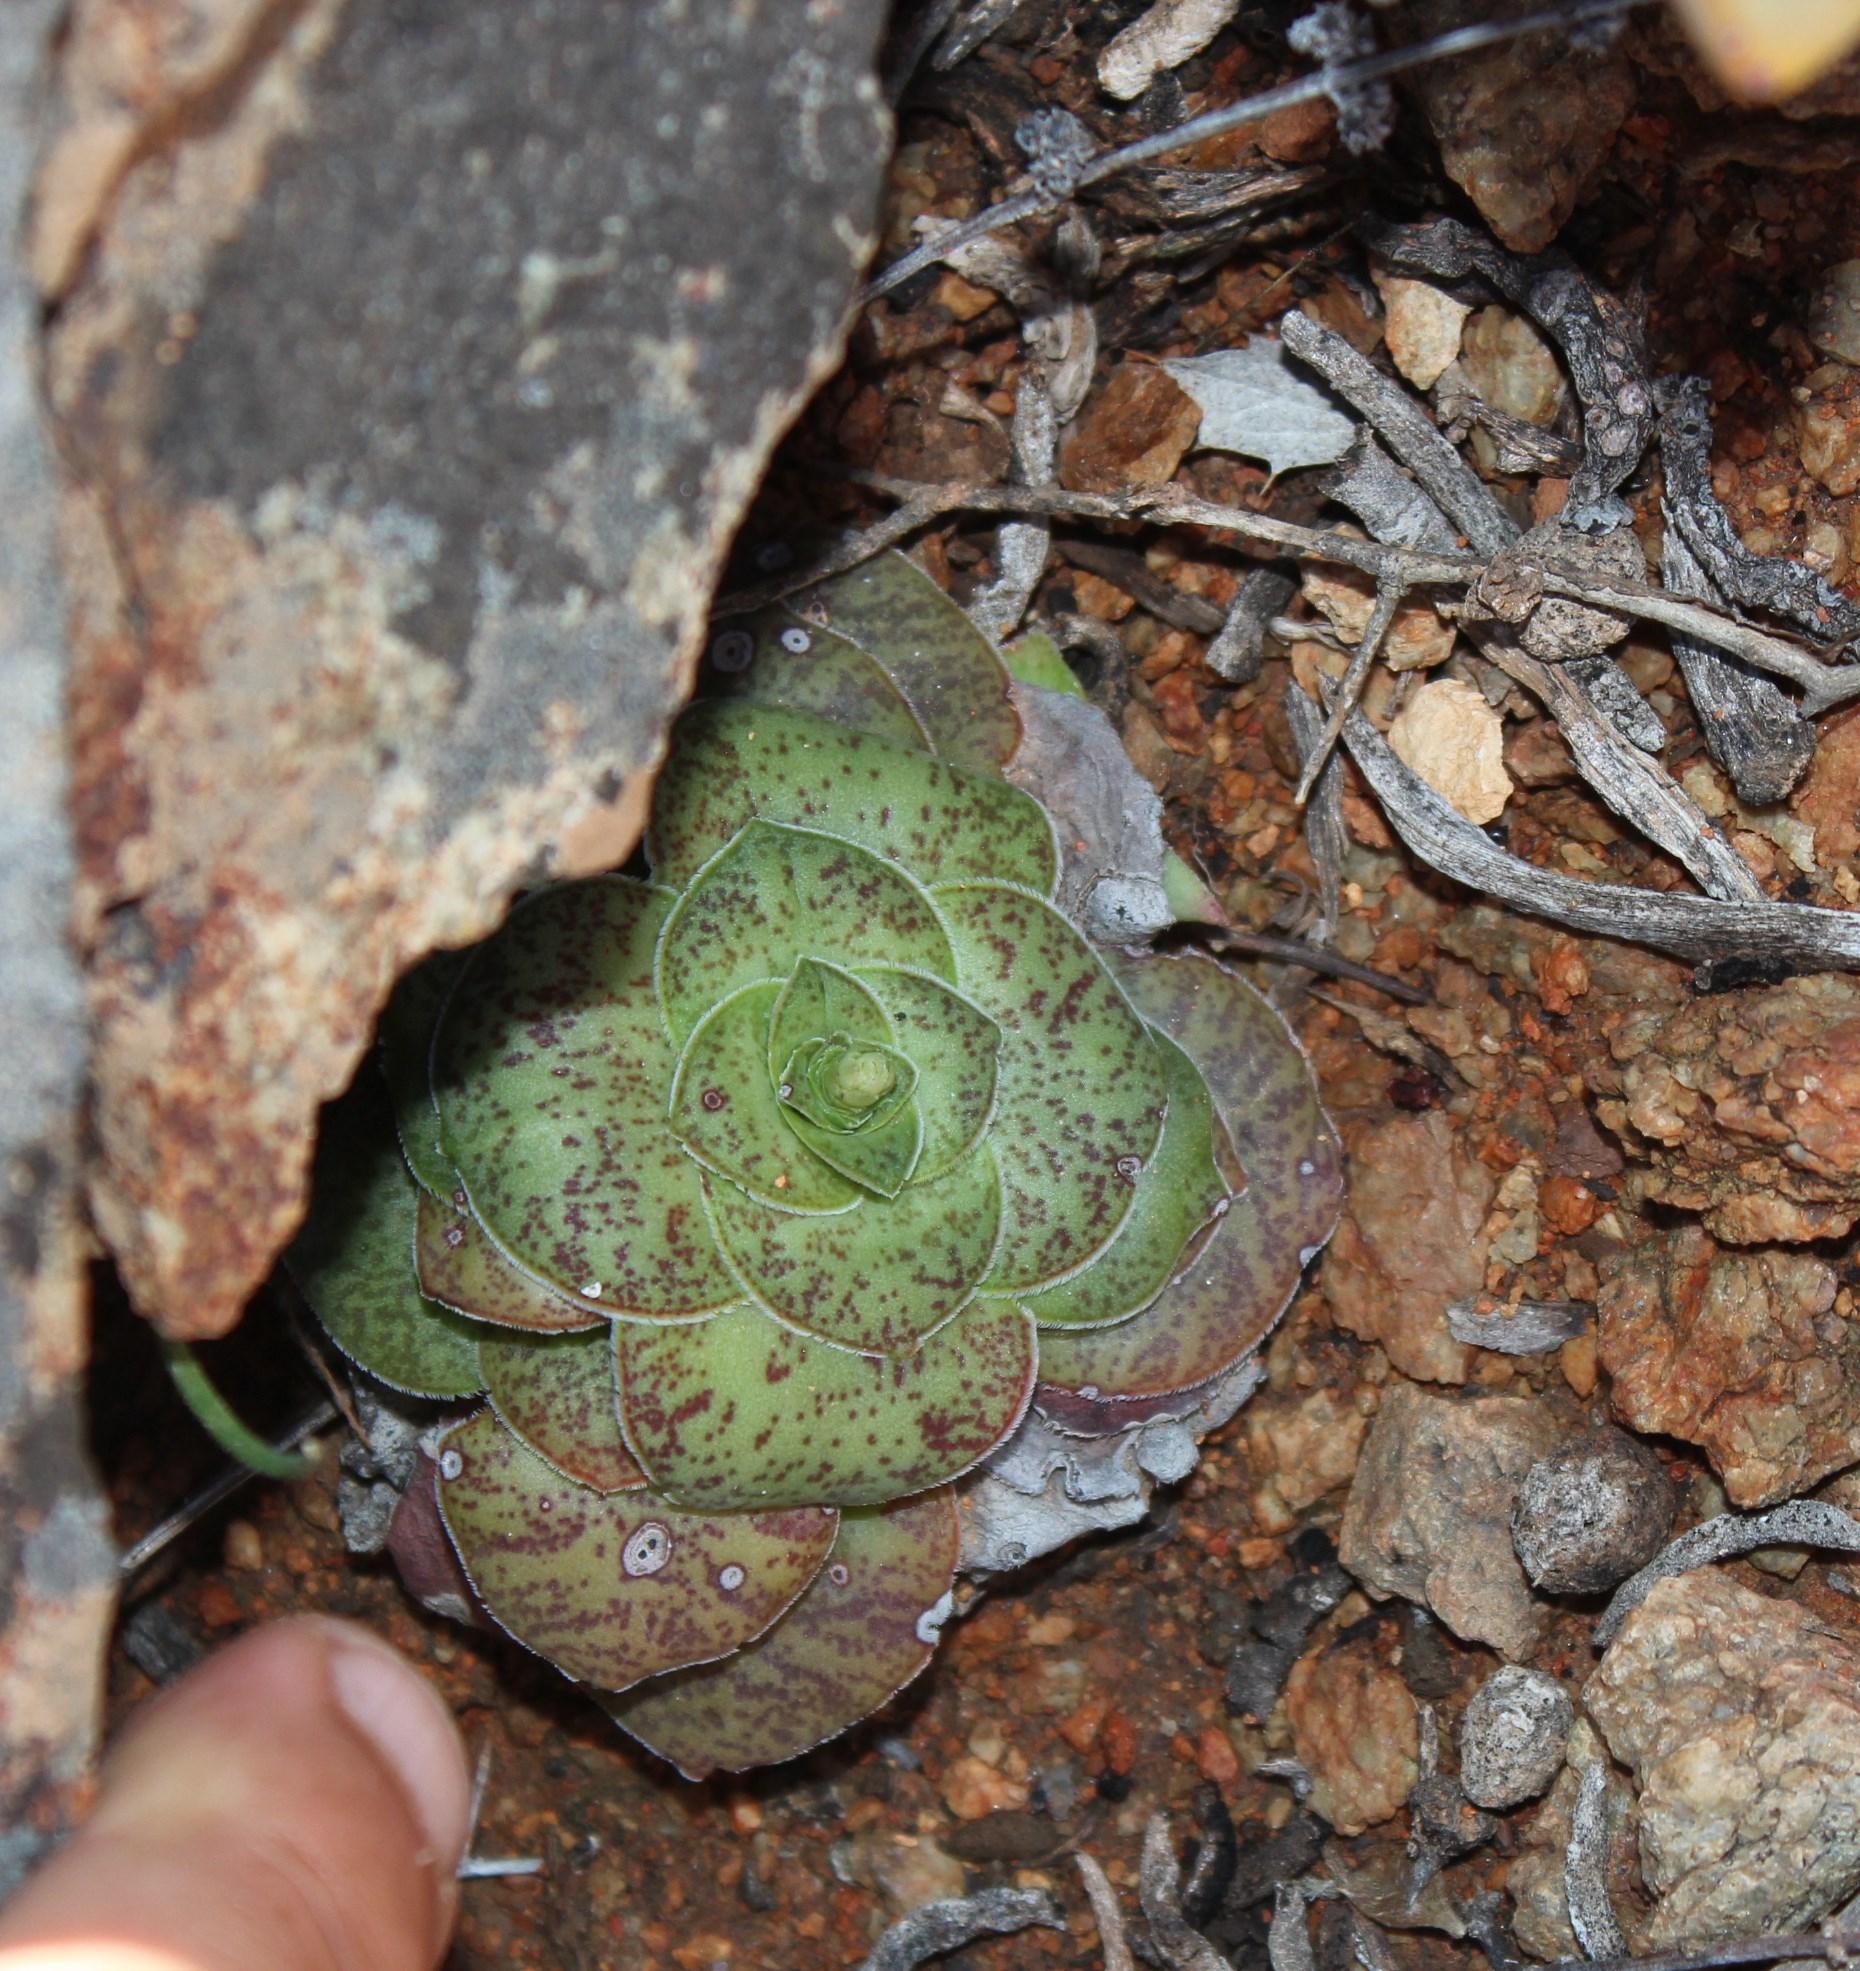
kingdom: Plantae
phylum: Tracheophyta
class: Magnoliopsida
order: Saxifragales
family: Crassulaceae
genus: Crassula
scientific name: Crassula pseudohemisphaerica
